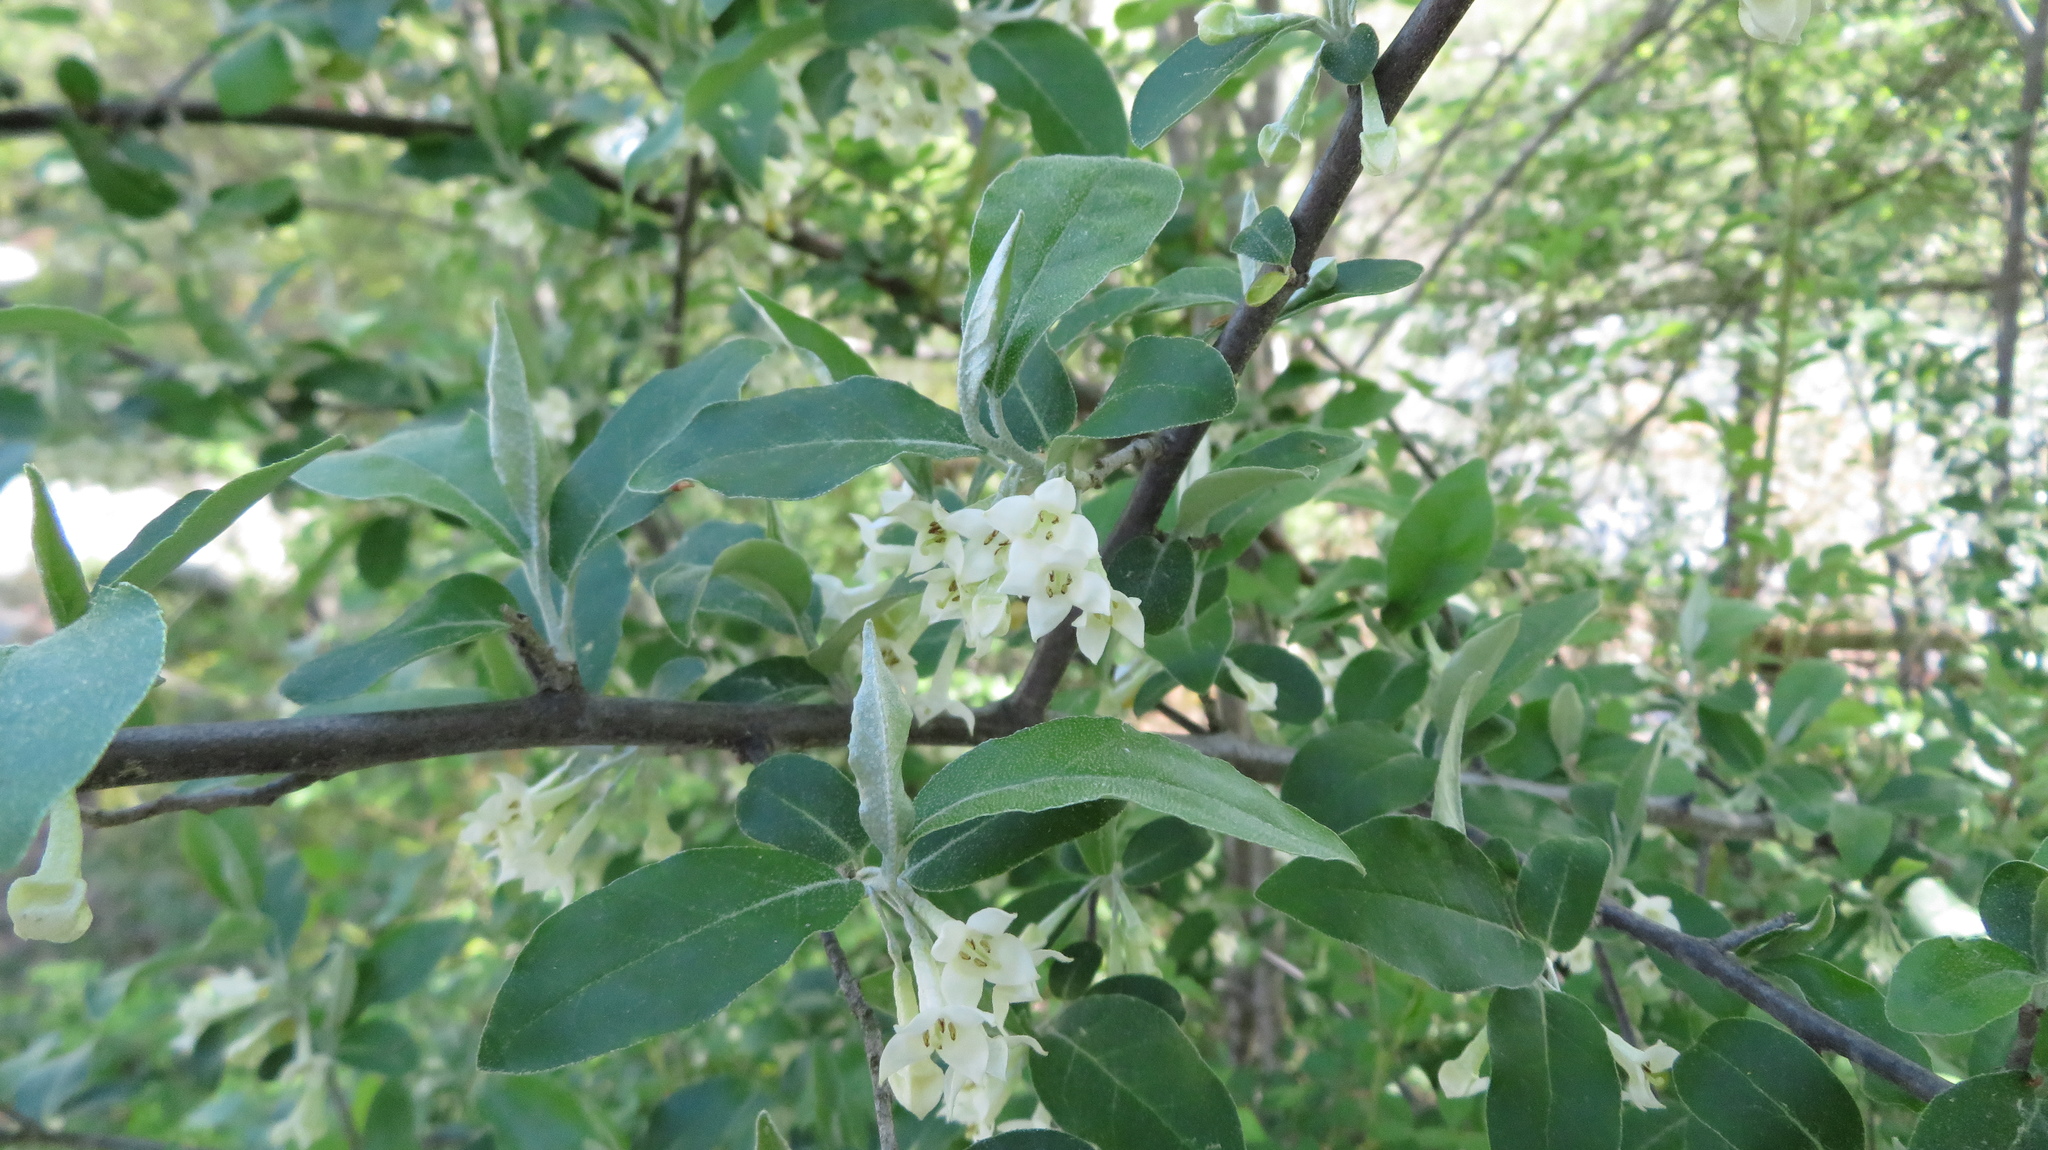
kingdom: Plantae
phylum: Tracheophyta
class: Magnoliopsida
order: Ranunculales
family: Berberidaceae
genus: Podophyllum
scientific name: Podophyllum peltatum
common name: Wild mandrake
